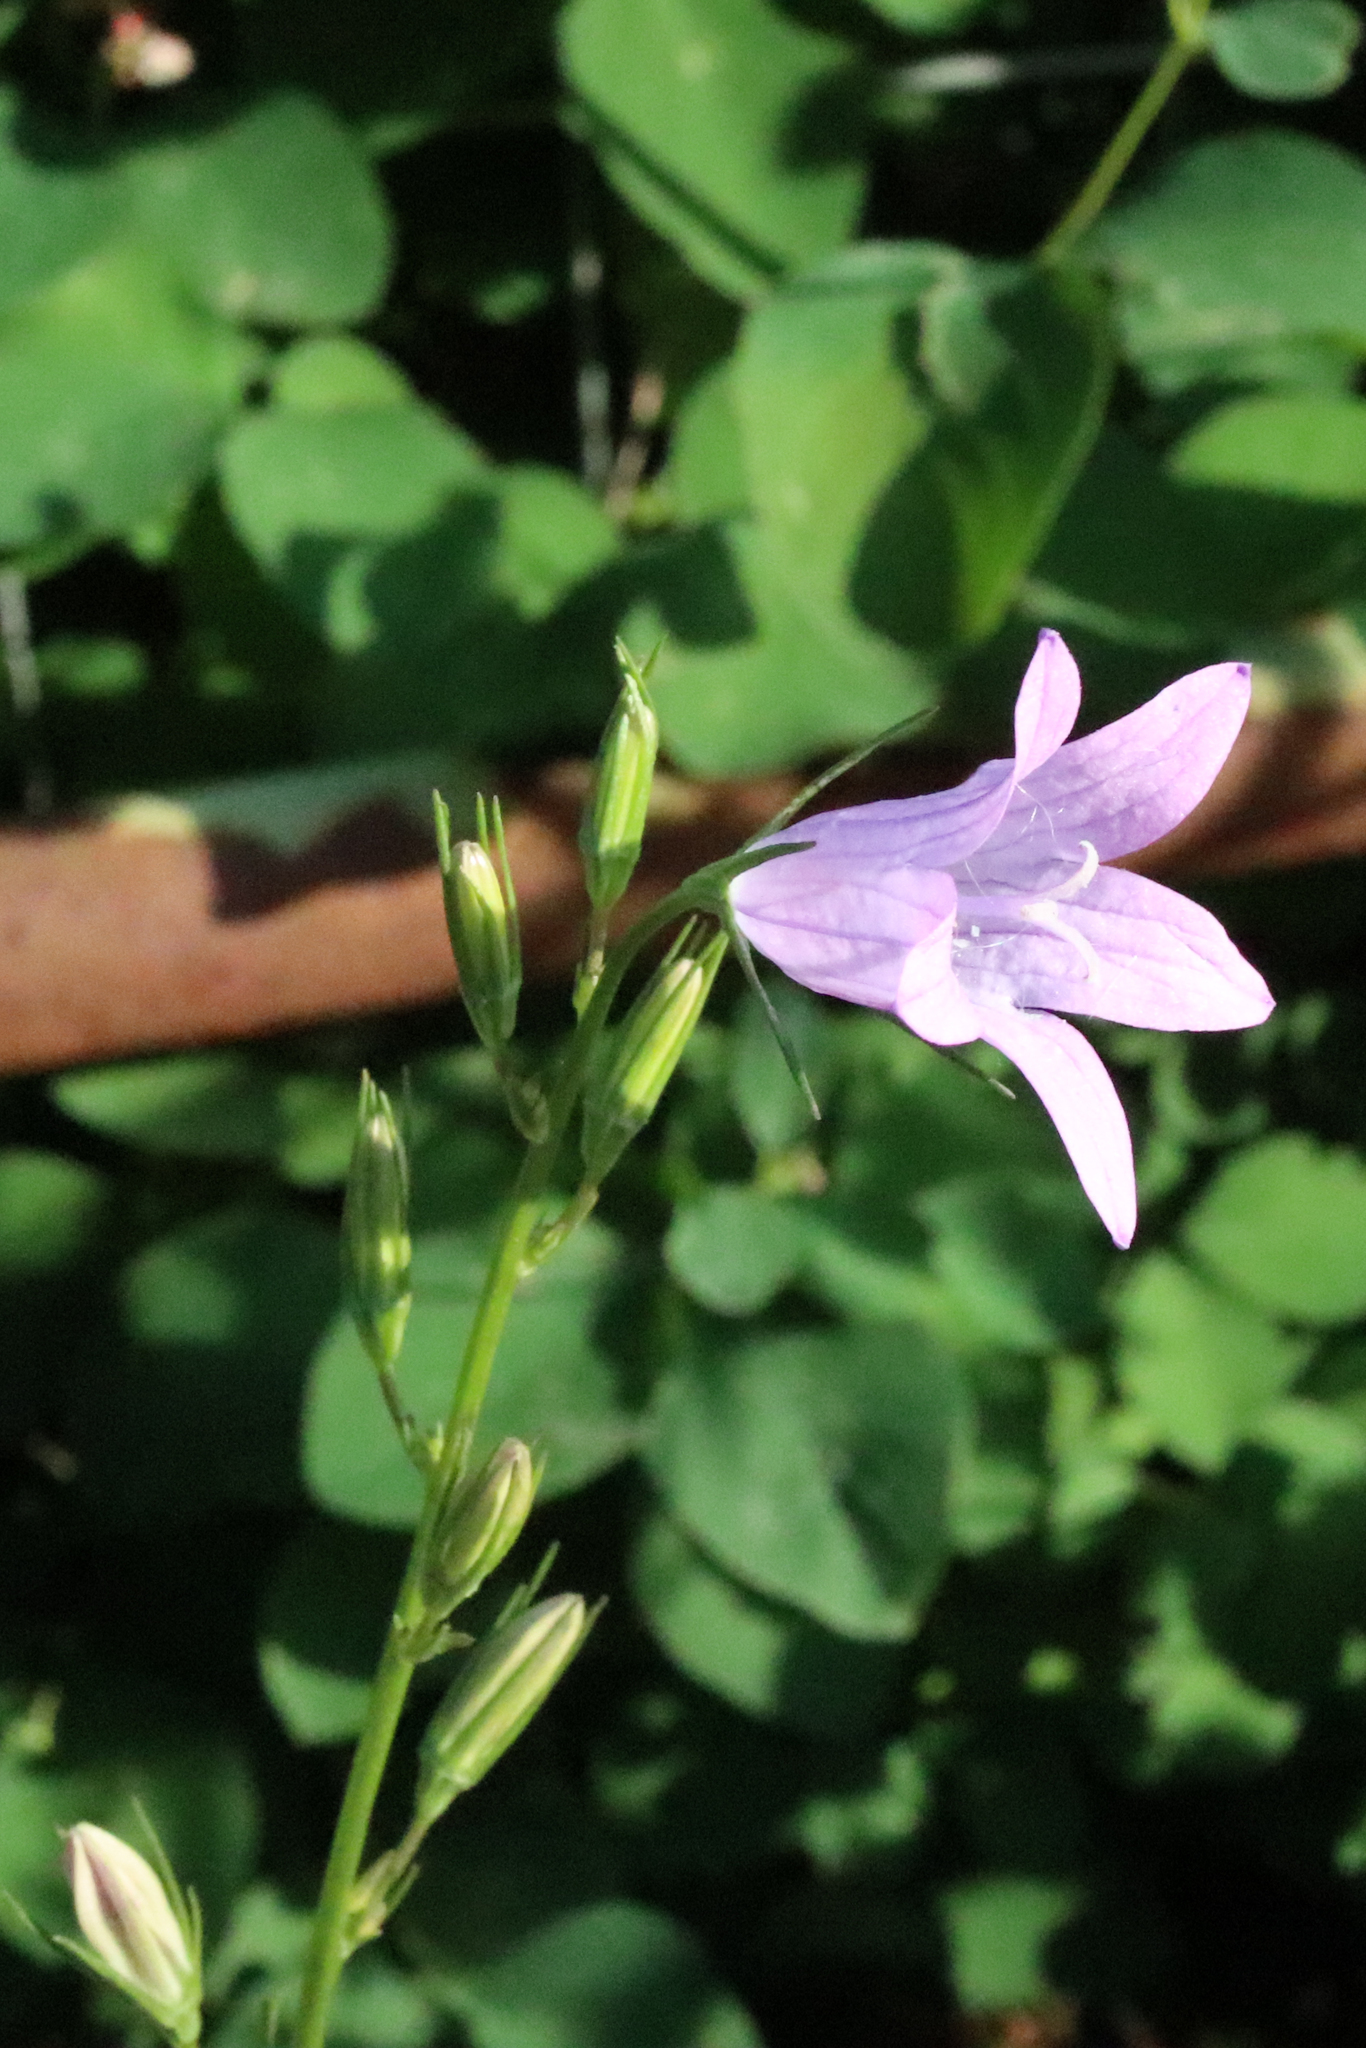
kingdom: Plantae
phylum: Tracheophyta
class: Magnoliopsida
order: Asterales
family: Campanulaceae
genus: Campanula
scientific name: Campanula rapunculus
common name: Rampion bellflower
